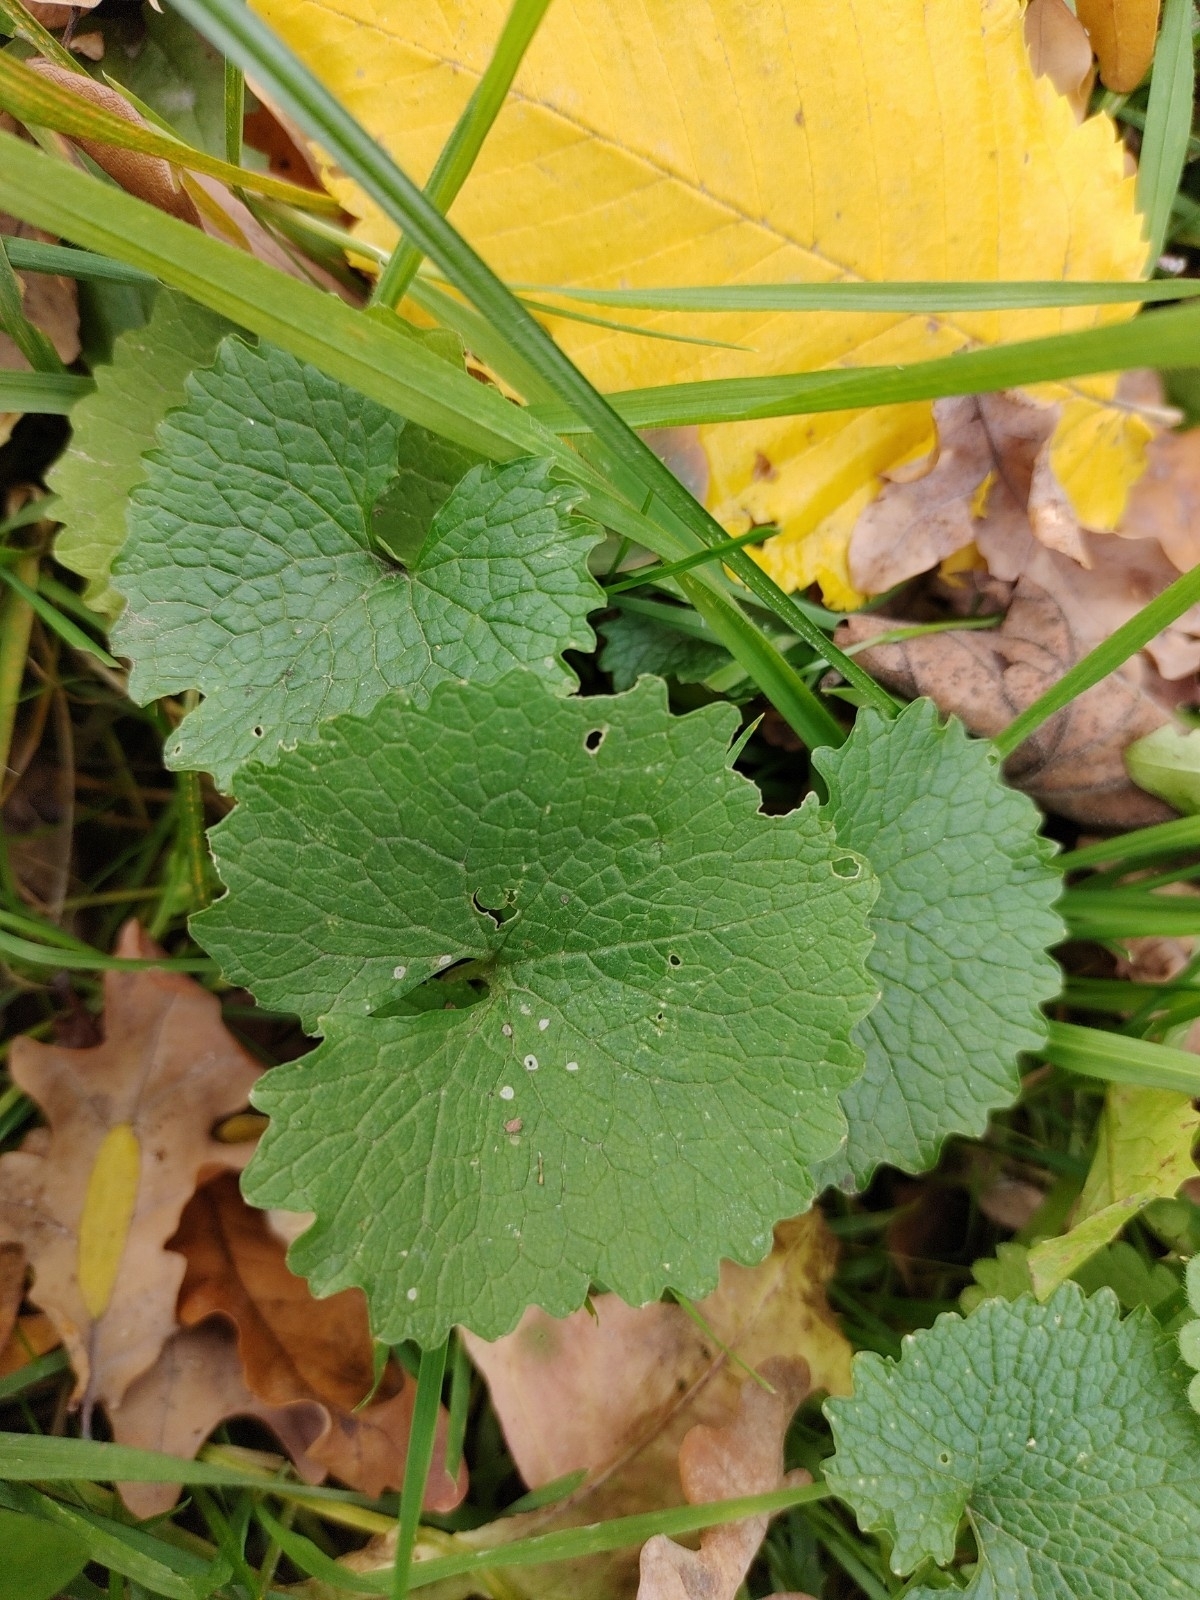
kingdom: Plantae
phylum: Tracheophyta
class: Magnoliopsida
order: Brassicales
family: Brassicaceae
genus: Alliaria
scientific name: Alliaria petiolata
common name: Garlic mustard
